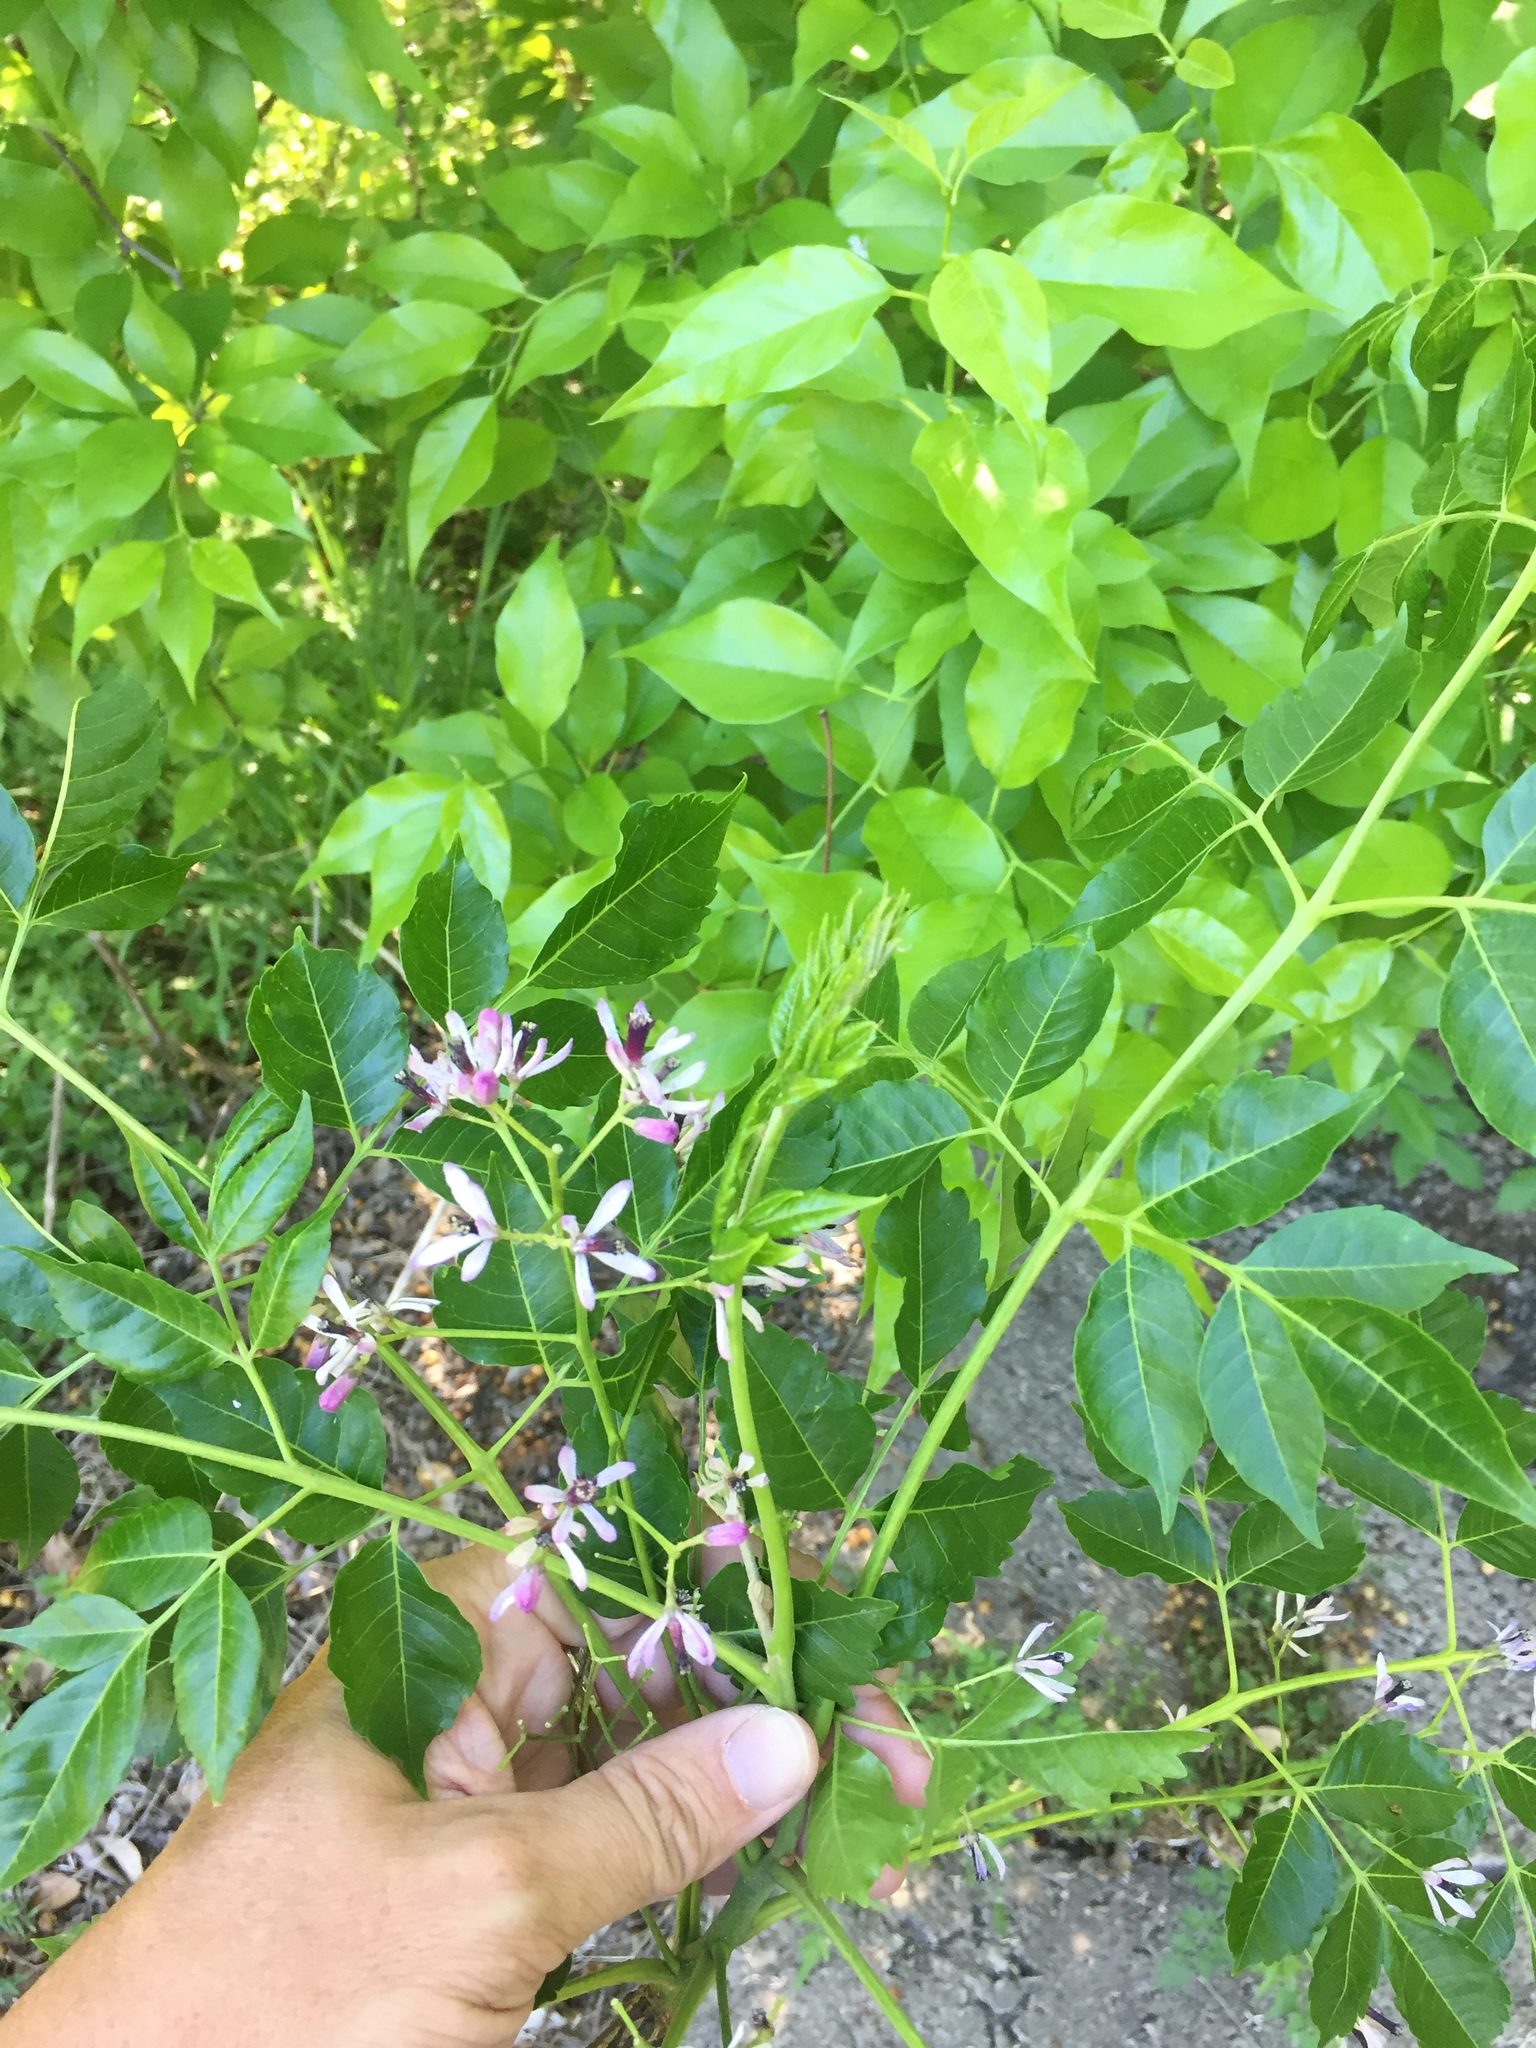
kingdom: Plantae
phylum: Tracheophyta
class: Magnoliopsida
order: Sapindales
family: Meliaceae
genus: Melia
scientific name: Melia azedarach
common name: Chinaberrytree
